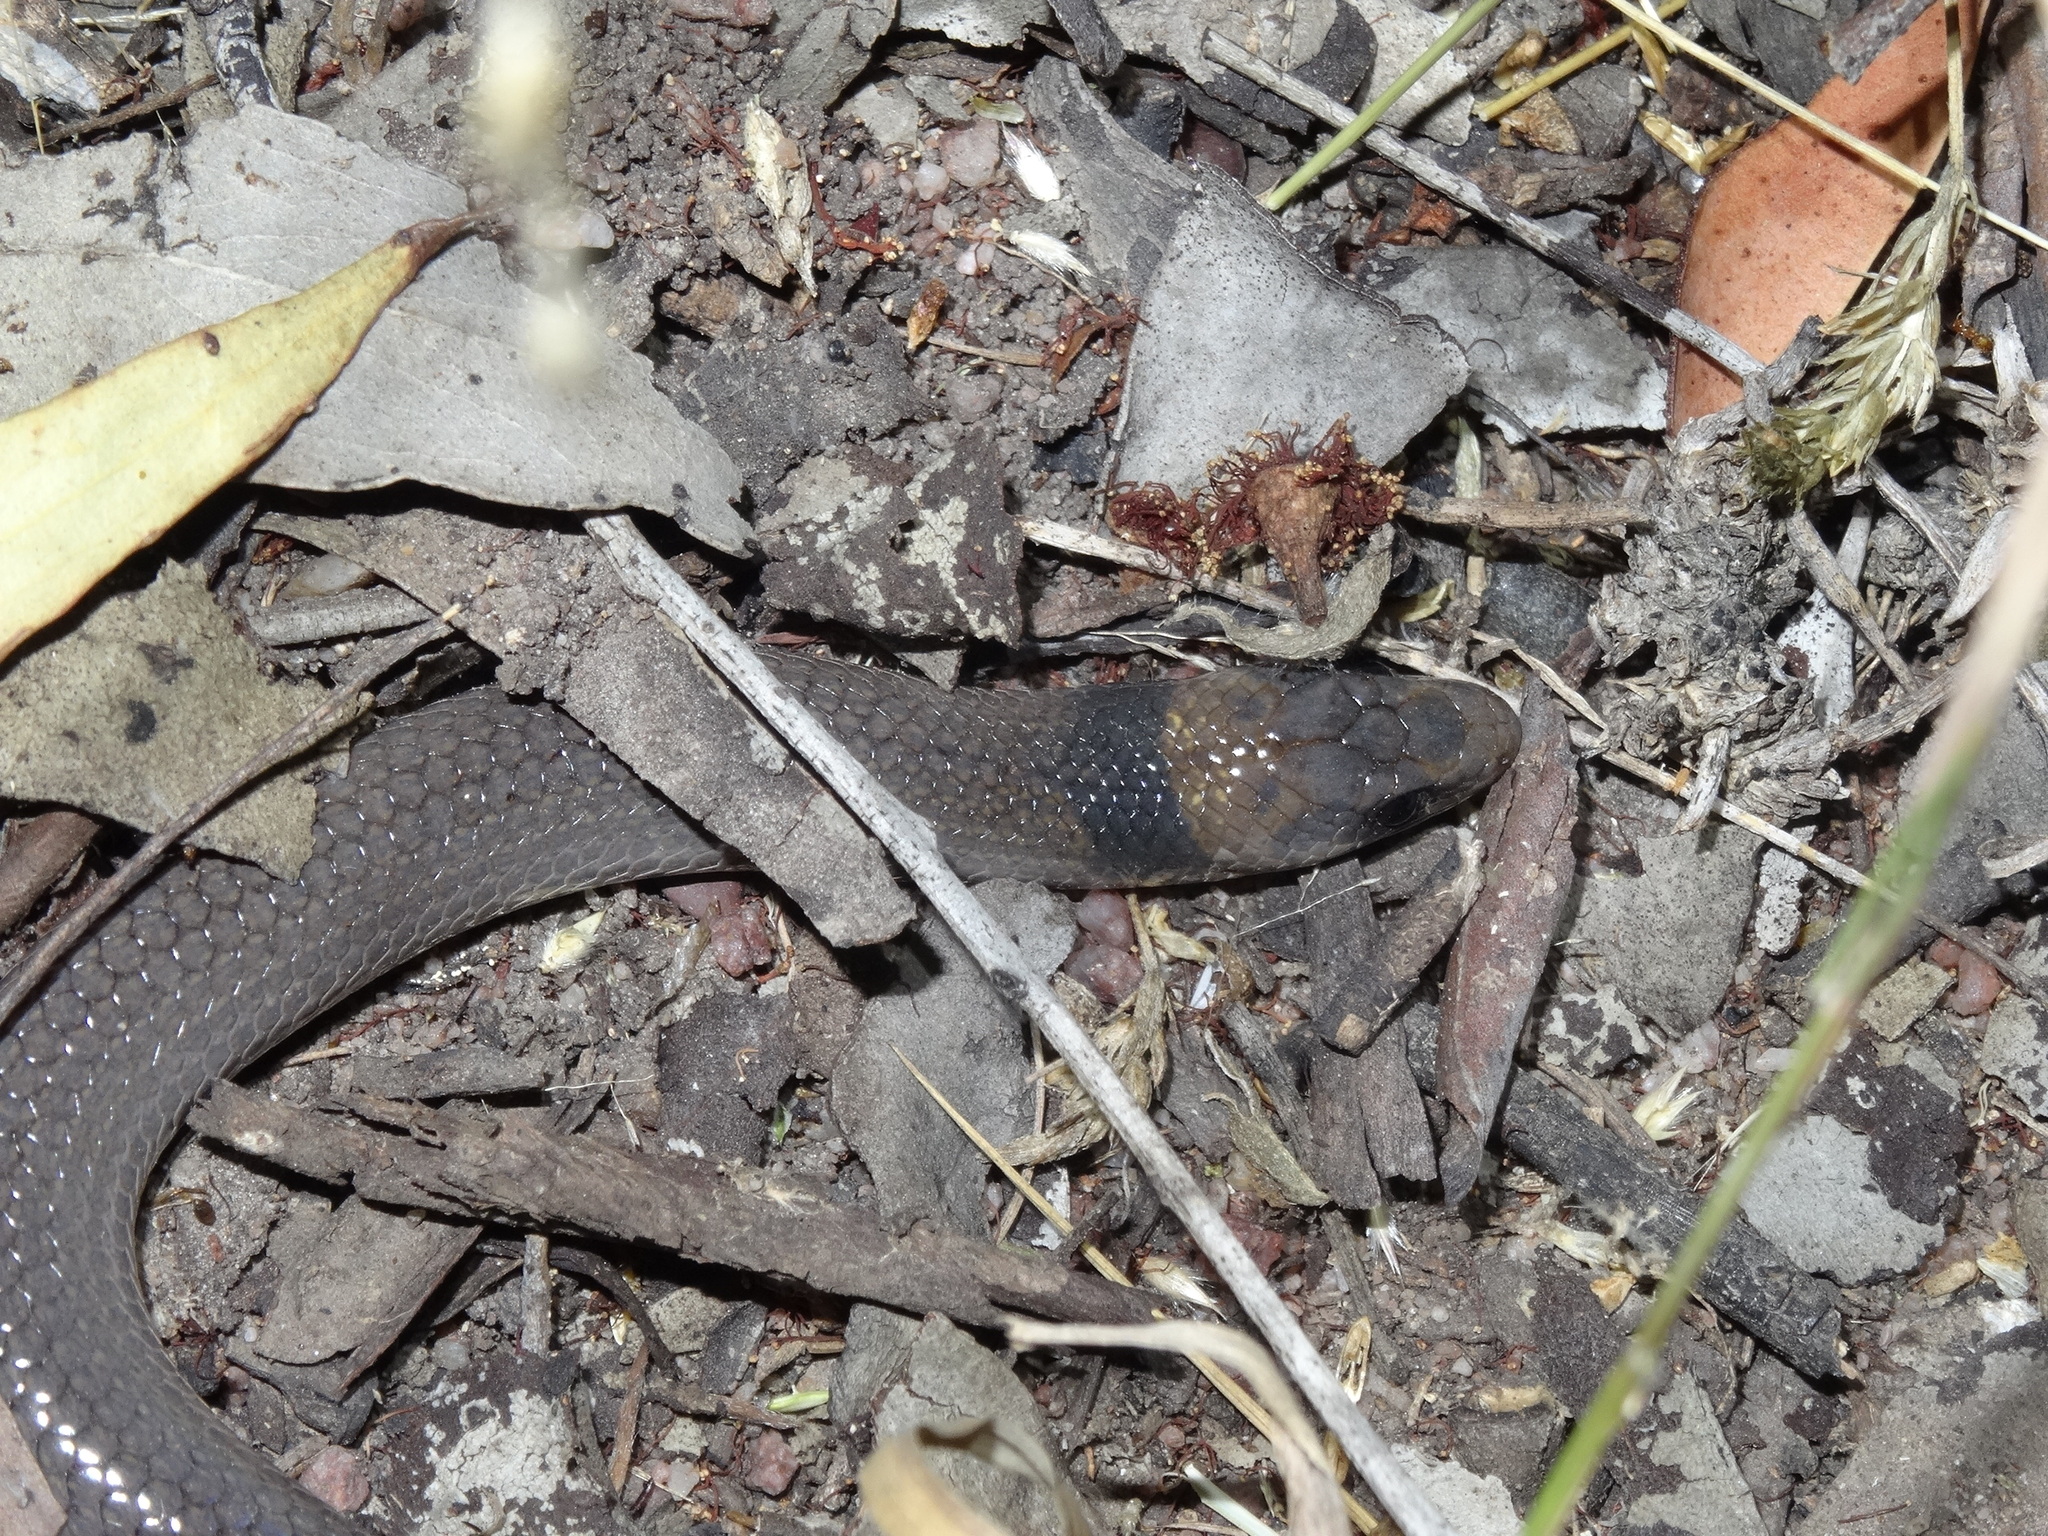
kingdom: Animalia
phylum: Chordata
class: Squamata
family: Pygopodidae
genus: Paradelma
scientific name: Paradelma orientalis
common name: Brigalow scaly-foot
